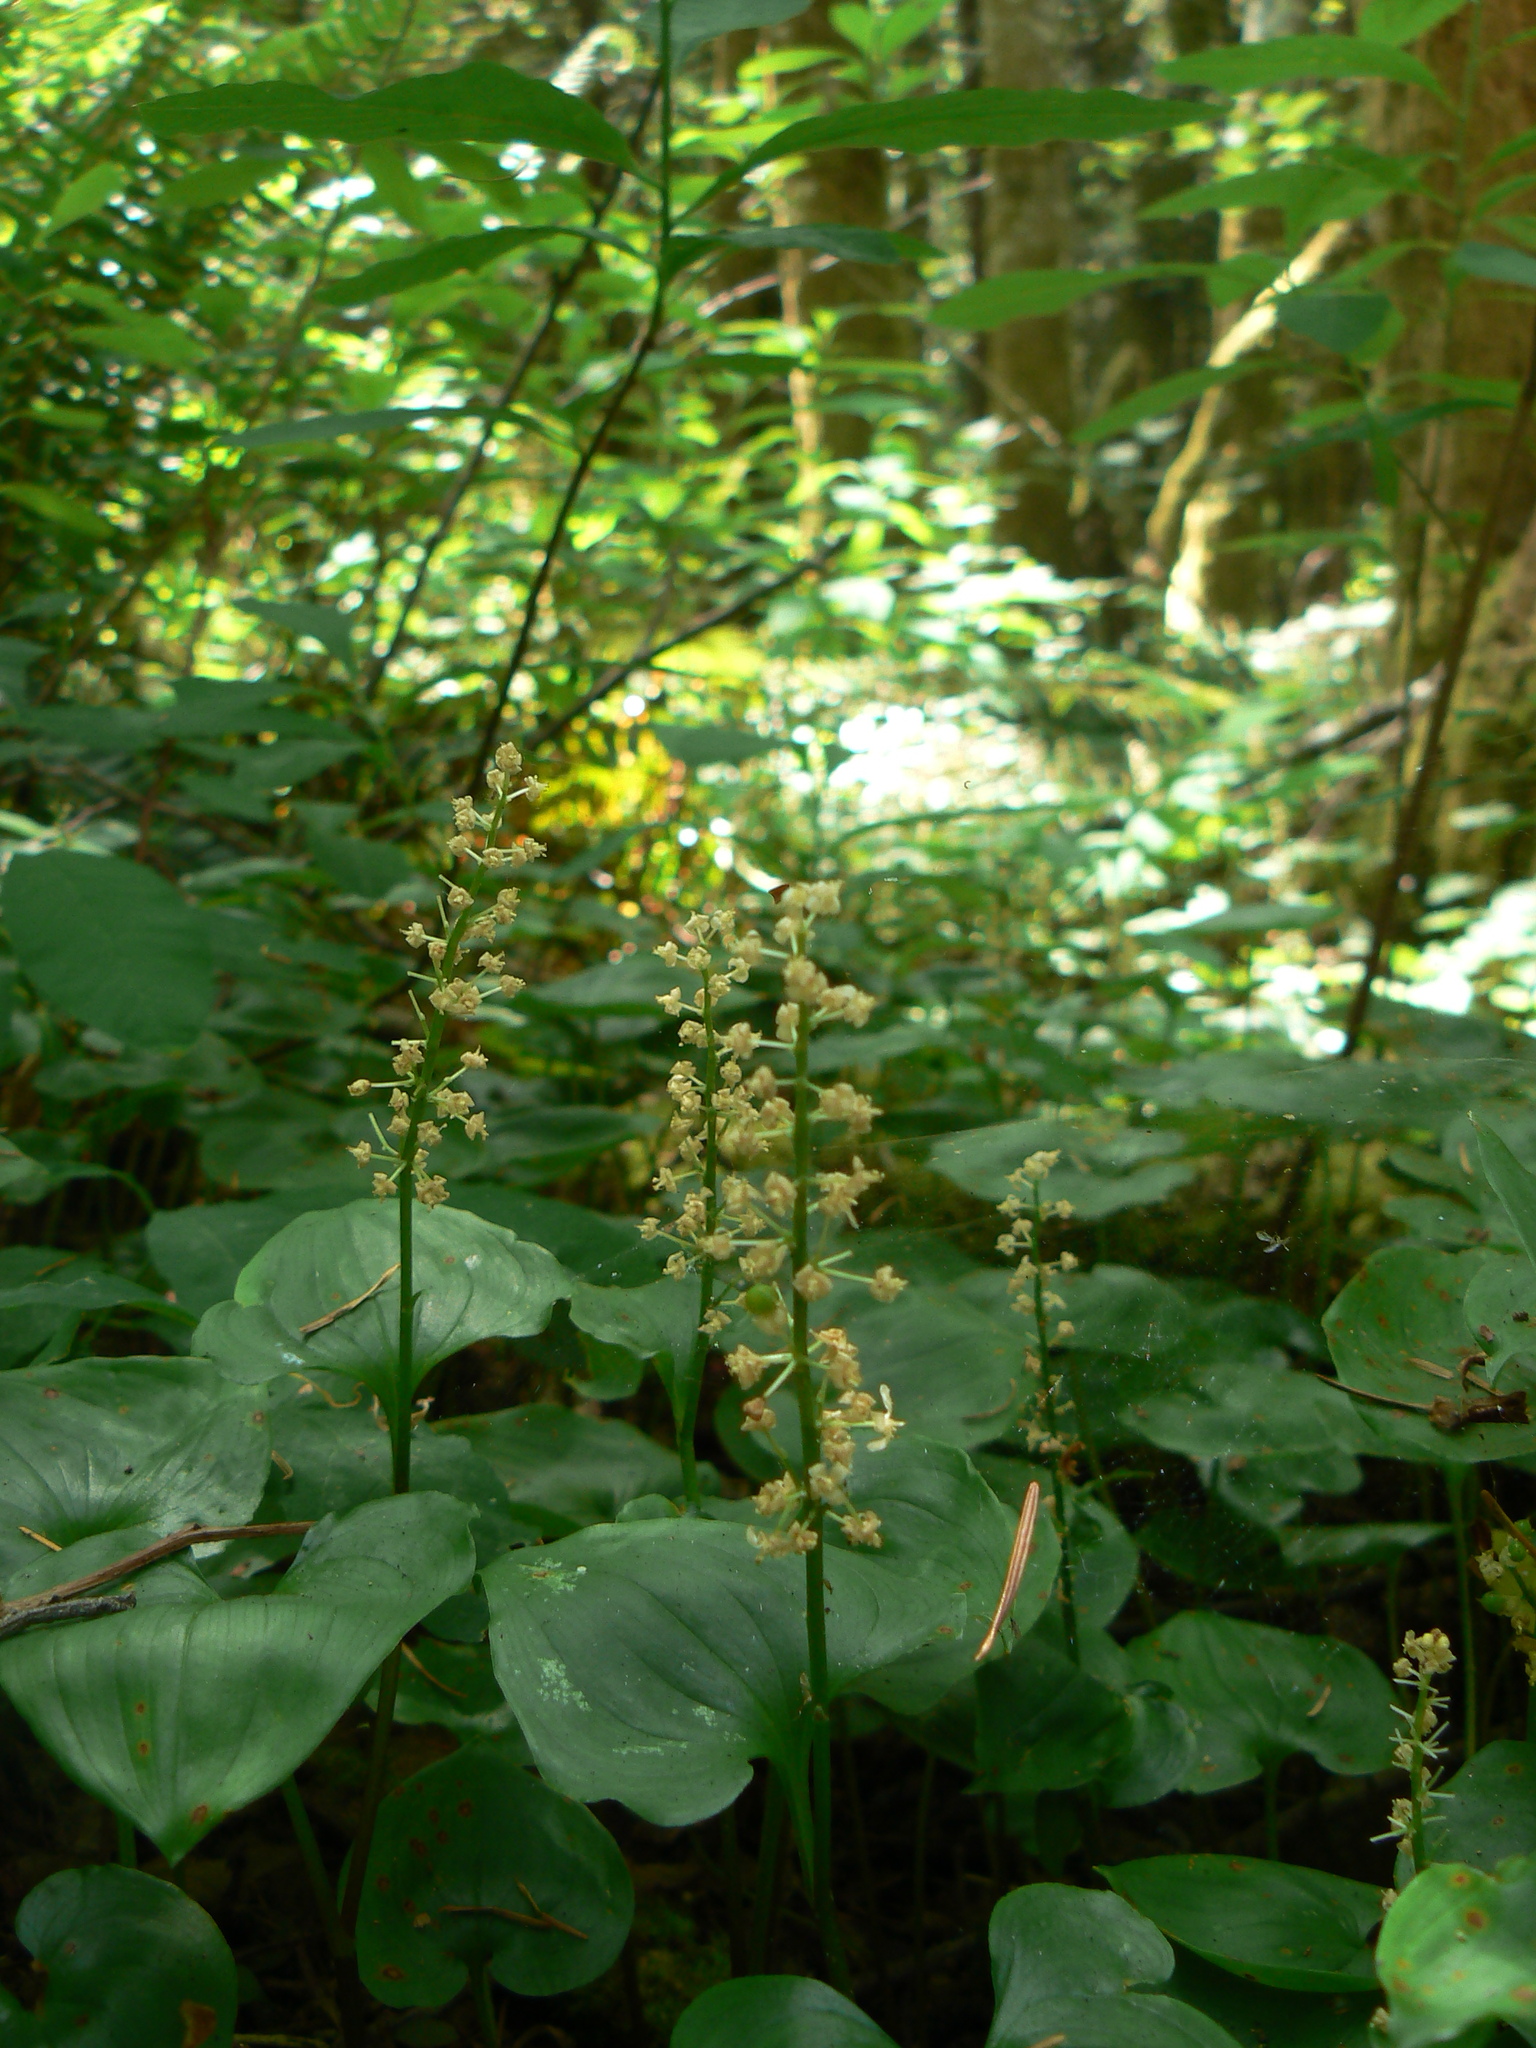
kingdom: Plantae
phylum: Tracheophyta
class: Liliopsida
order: Asparagales
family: Asparagaceae
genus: Maianthemum
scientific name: Maianthemum dilatatum
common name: False lily-of-the-valley
